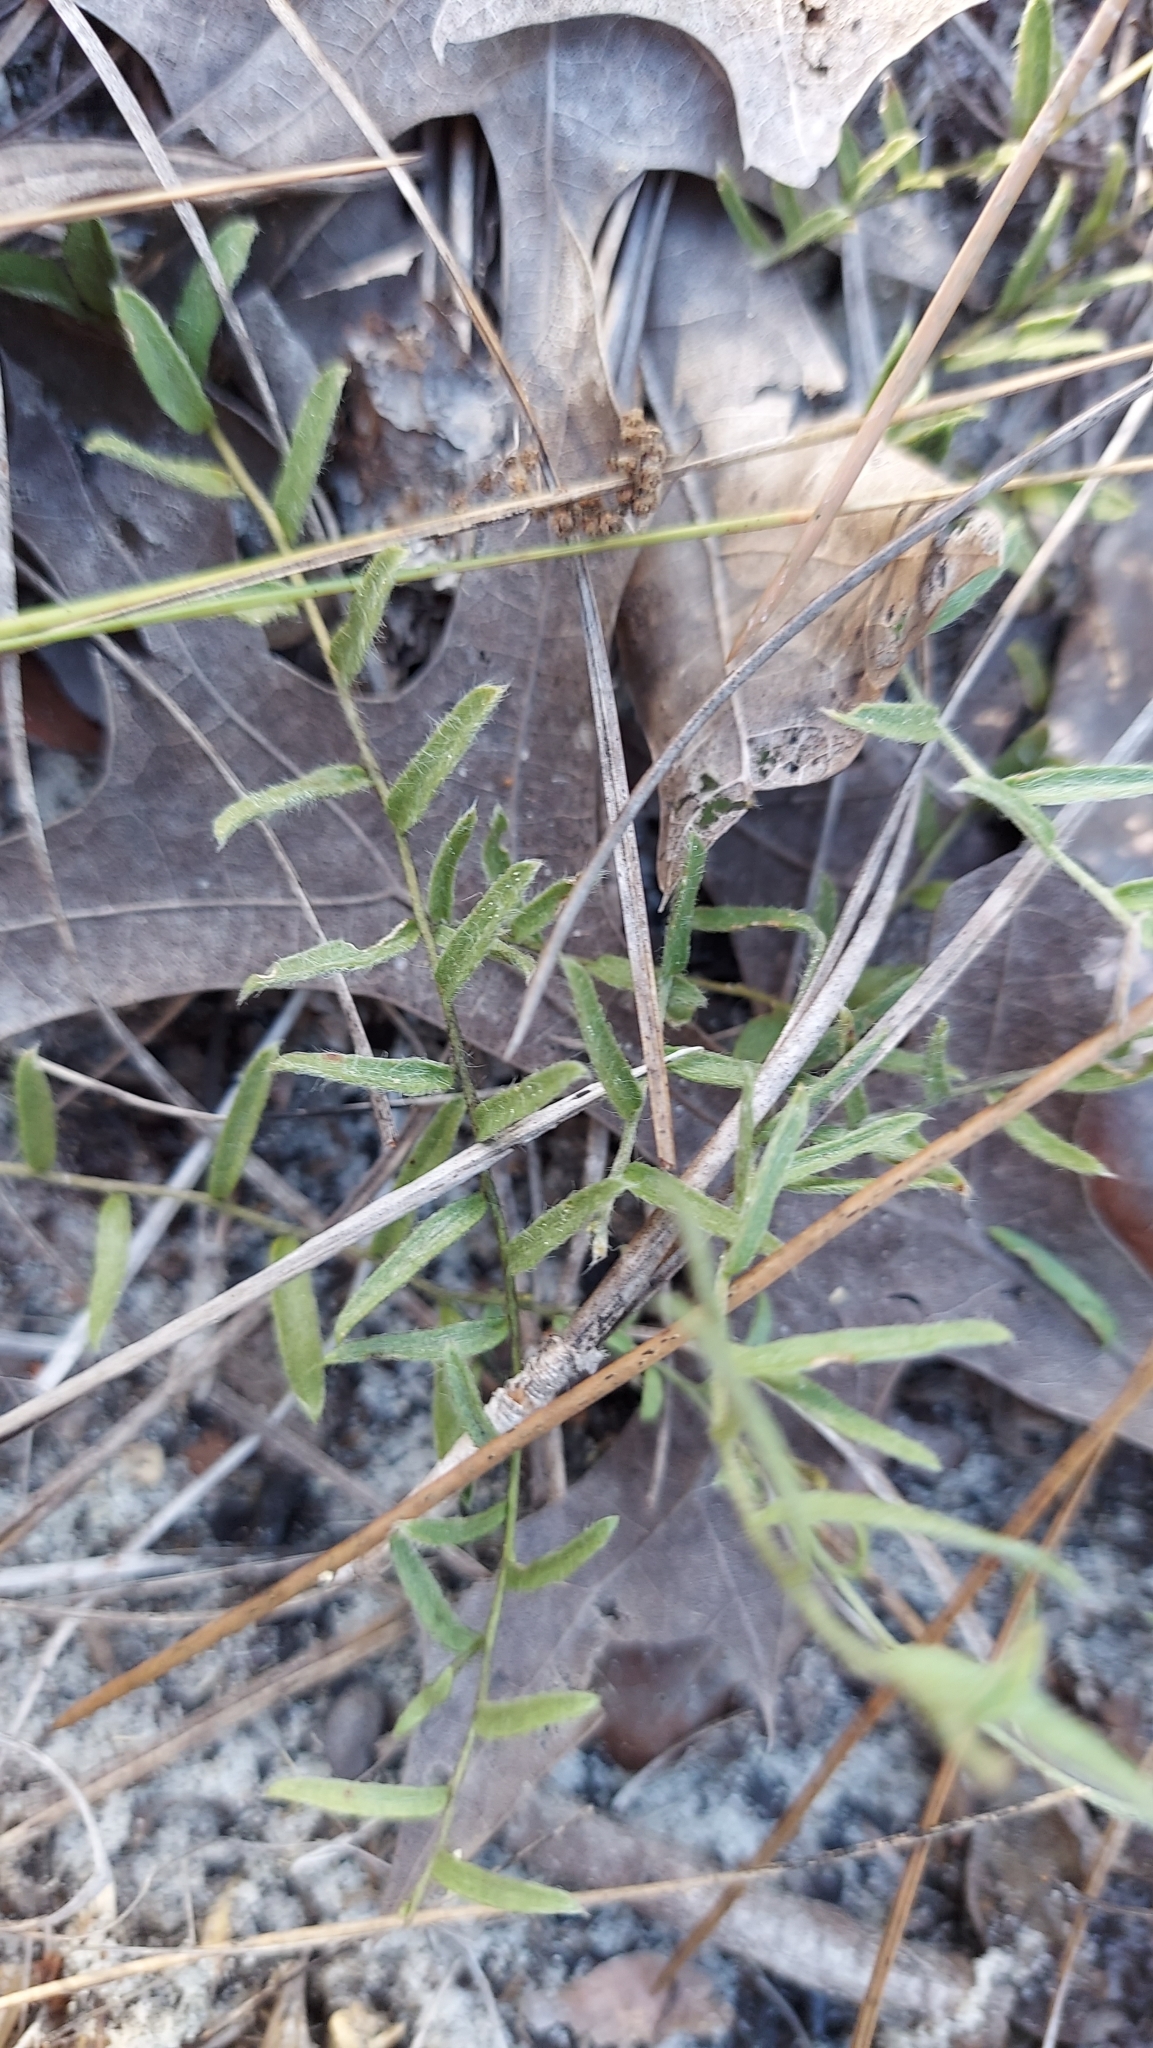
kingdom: Plantae
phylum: Tracheophyta
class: Magnoliopsida
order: Solanales
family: Convolvulaceae
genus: Stylisma
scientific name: Stylisma abdita
